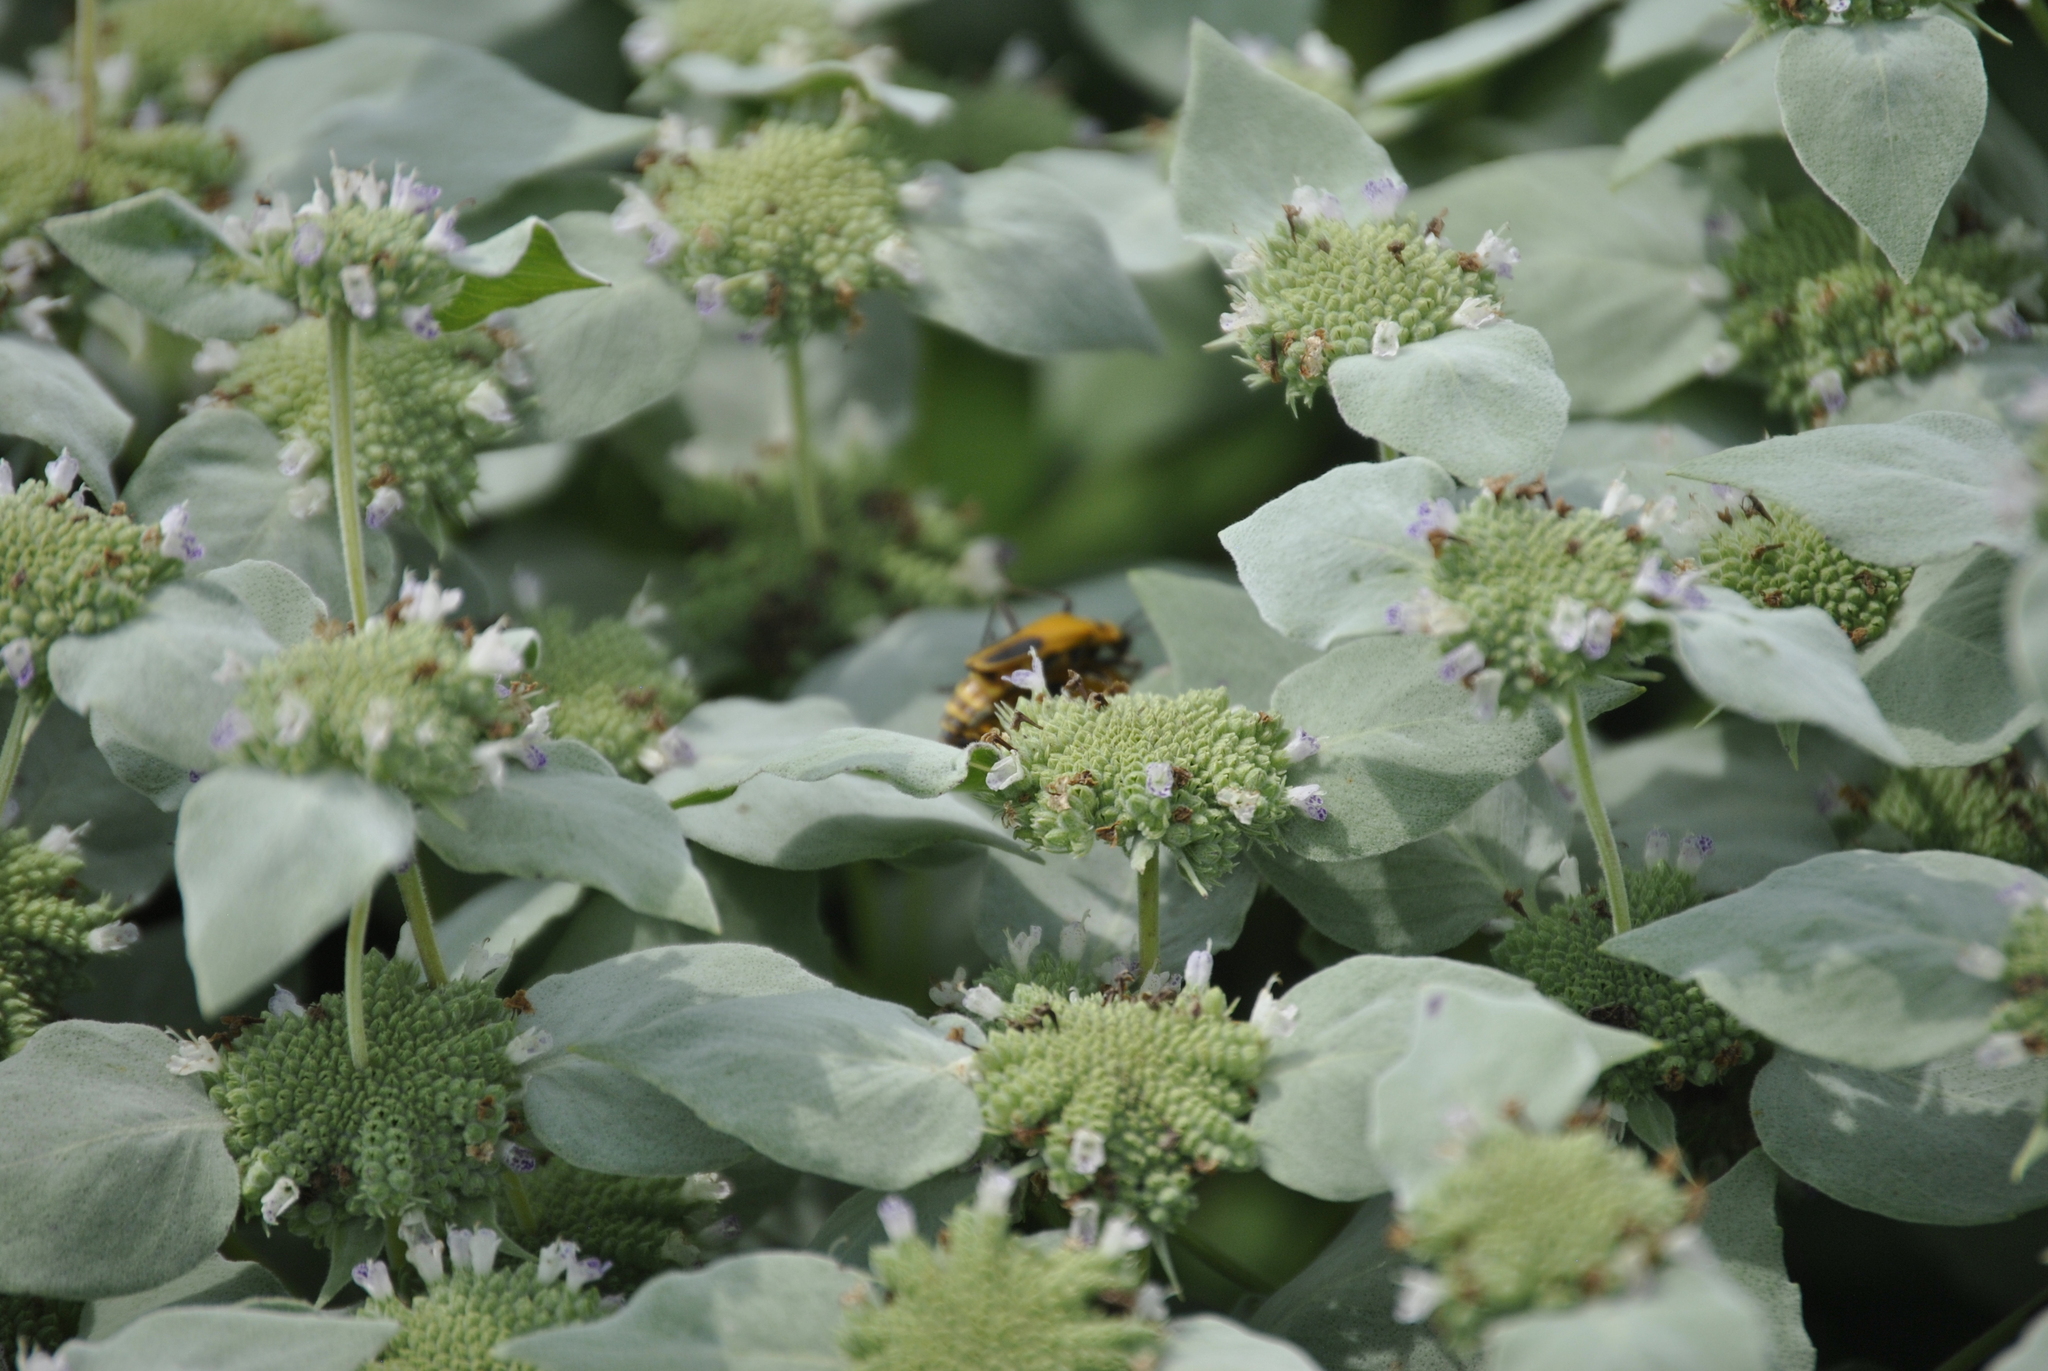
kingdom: Animalia
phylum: Arthropoda
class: Insecta
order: Coleoptera
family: Cantharidae
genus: Chauliognathus
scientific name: Chauliognathus pensylvanicus
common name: Goldenrod soldier beetle
